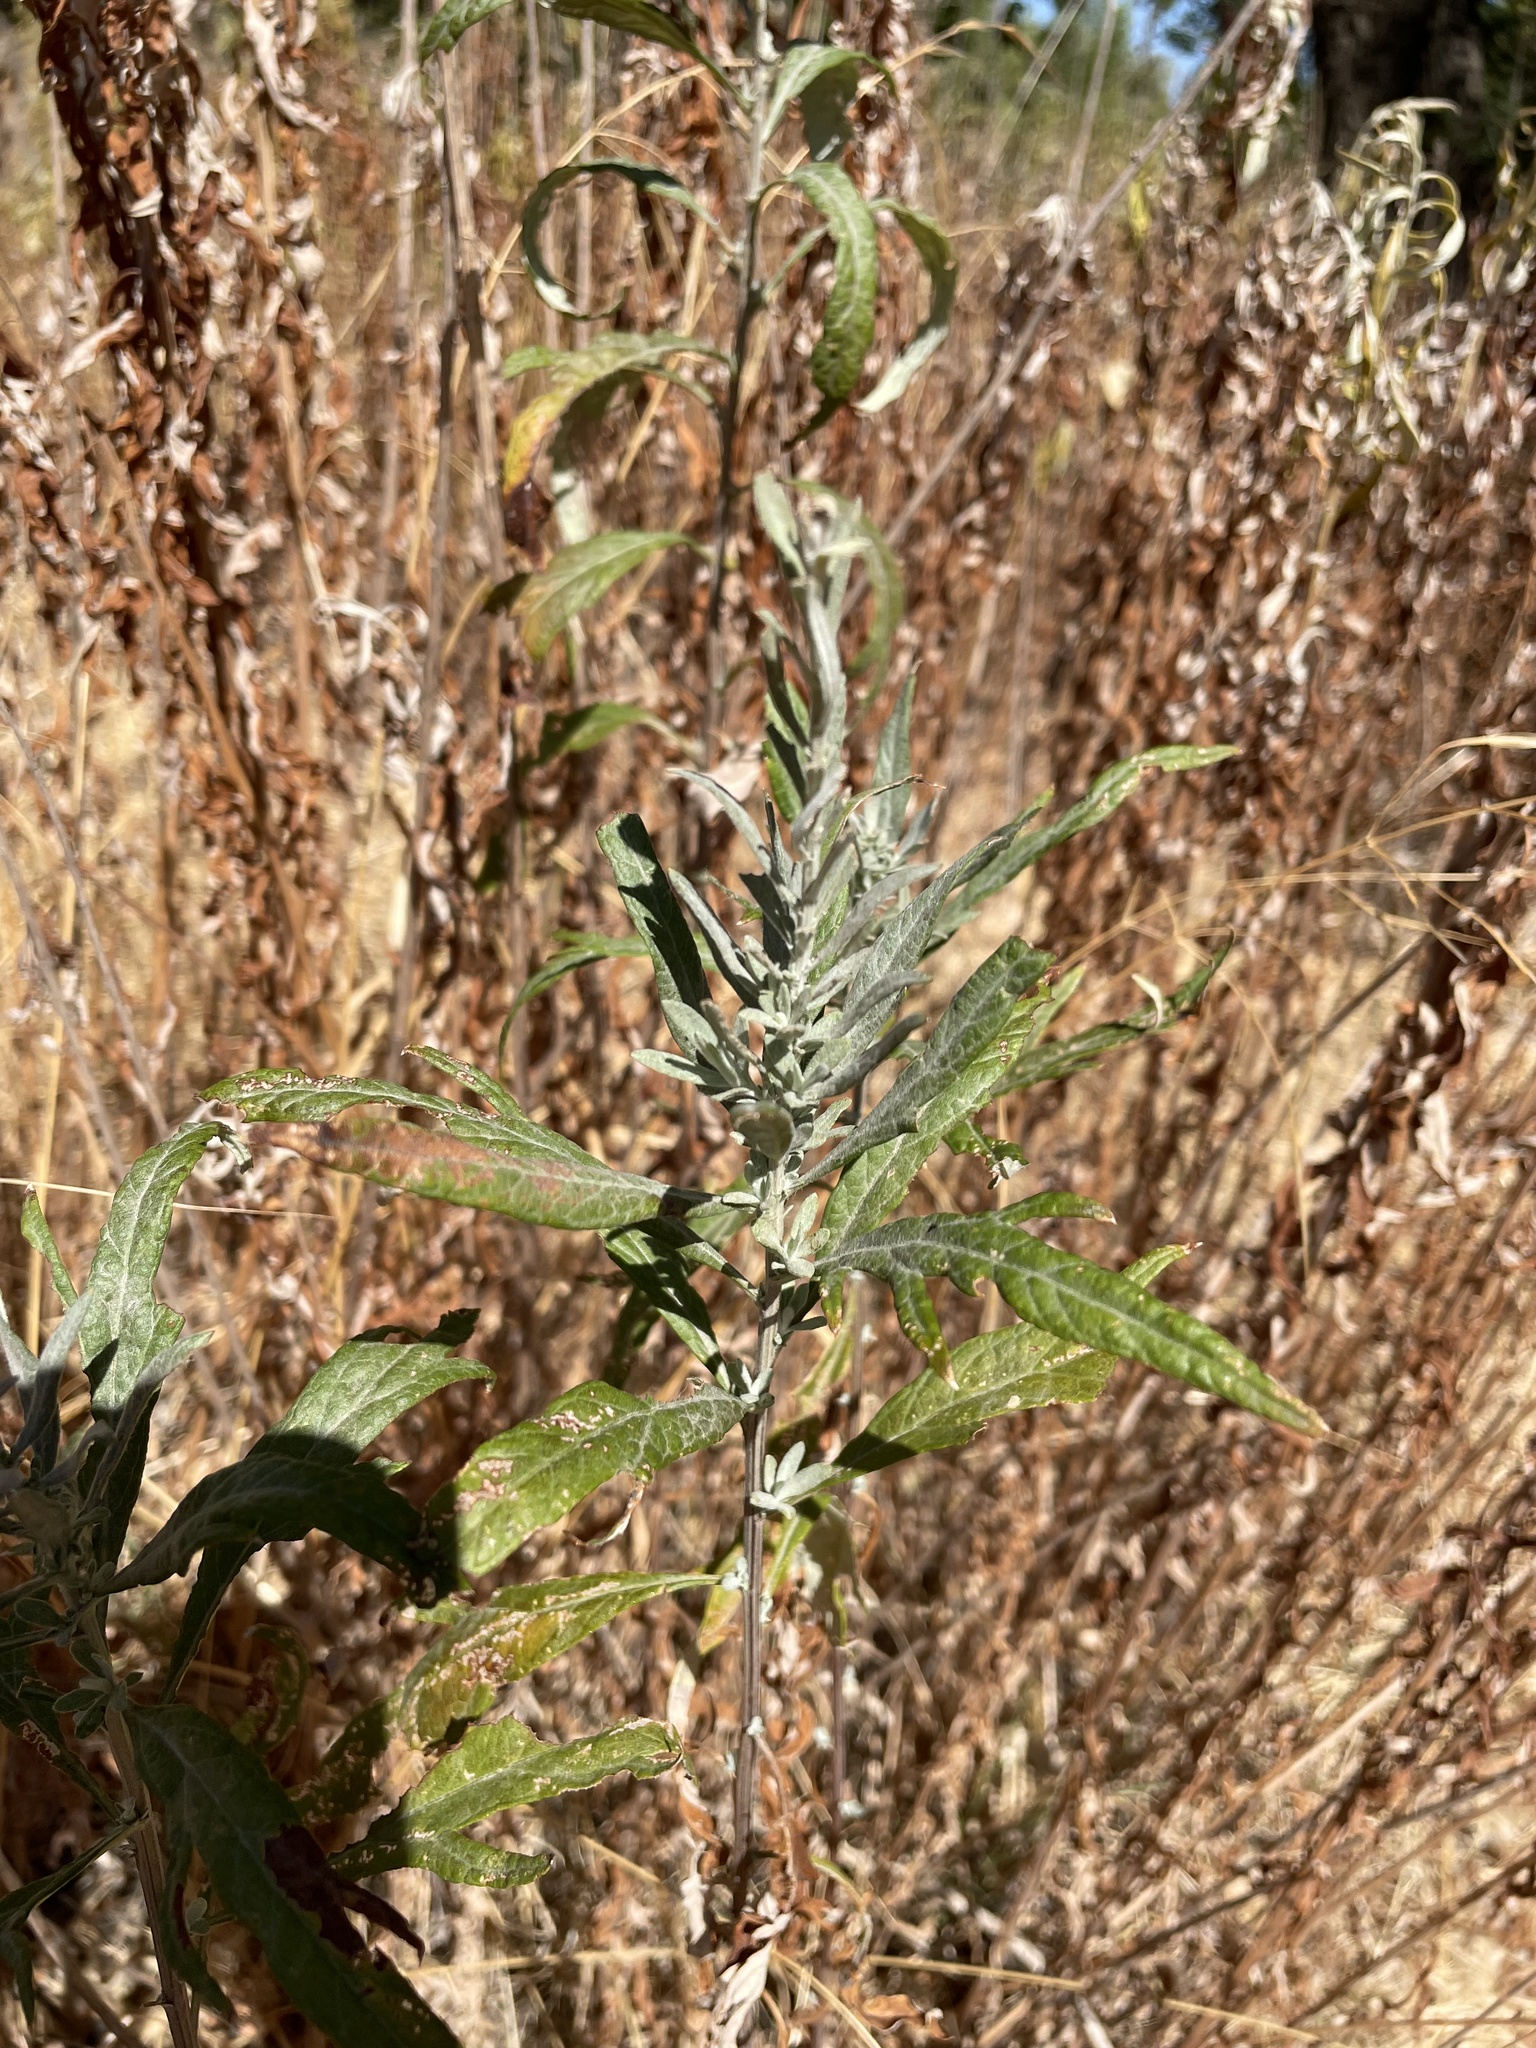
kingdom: Plantae
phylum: Tracheophyta
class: Magnoliopsida
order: Asterales
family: Asteraceae
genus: Artemisia
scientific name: Artemisia douglasiana
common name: Northwest mugwort
